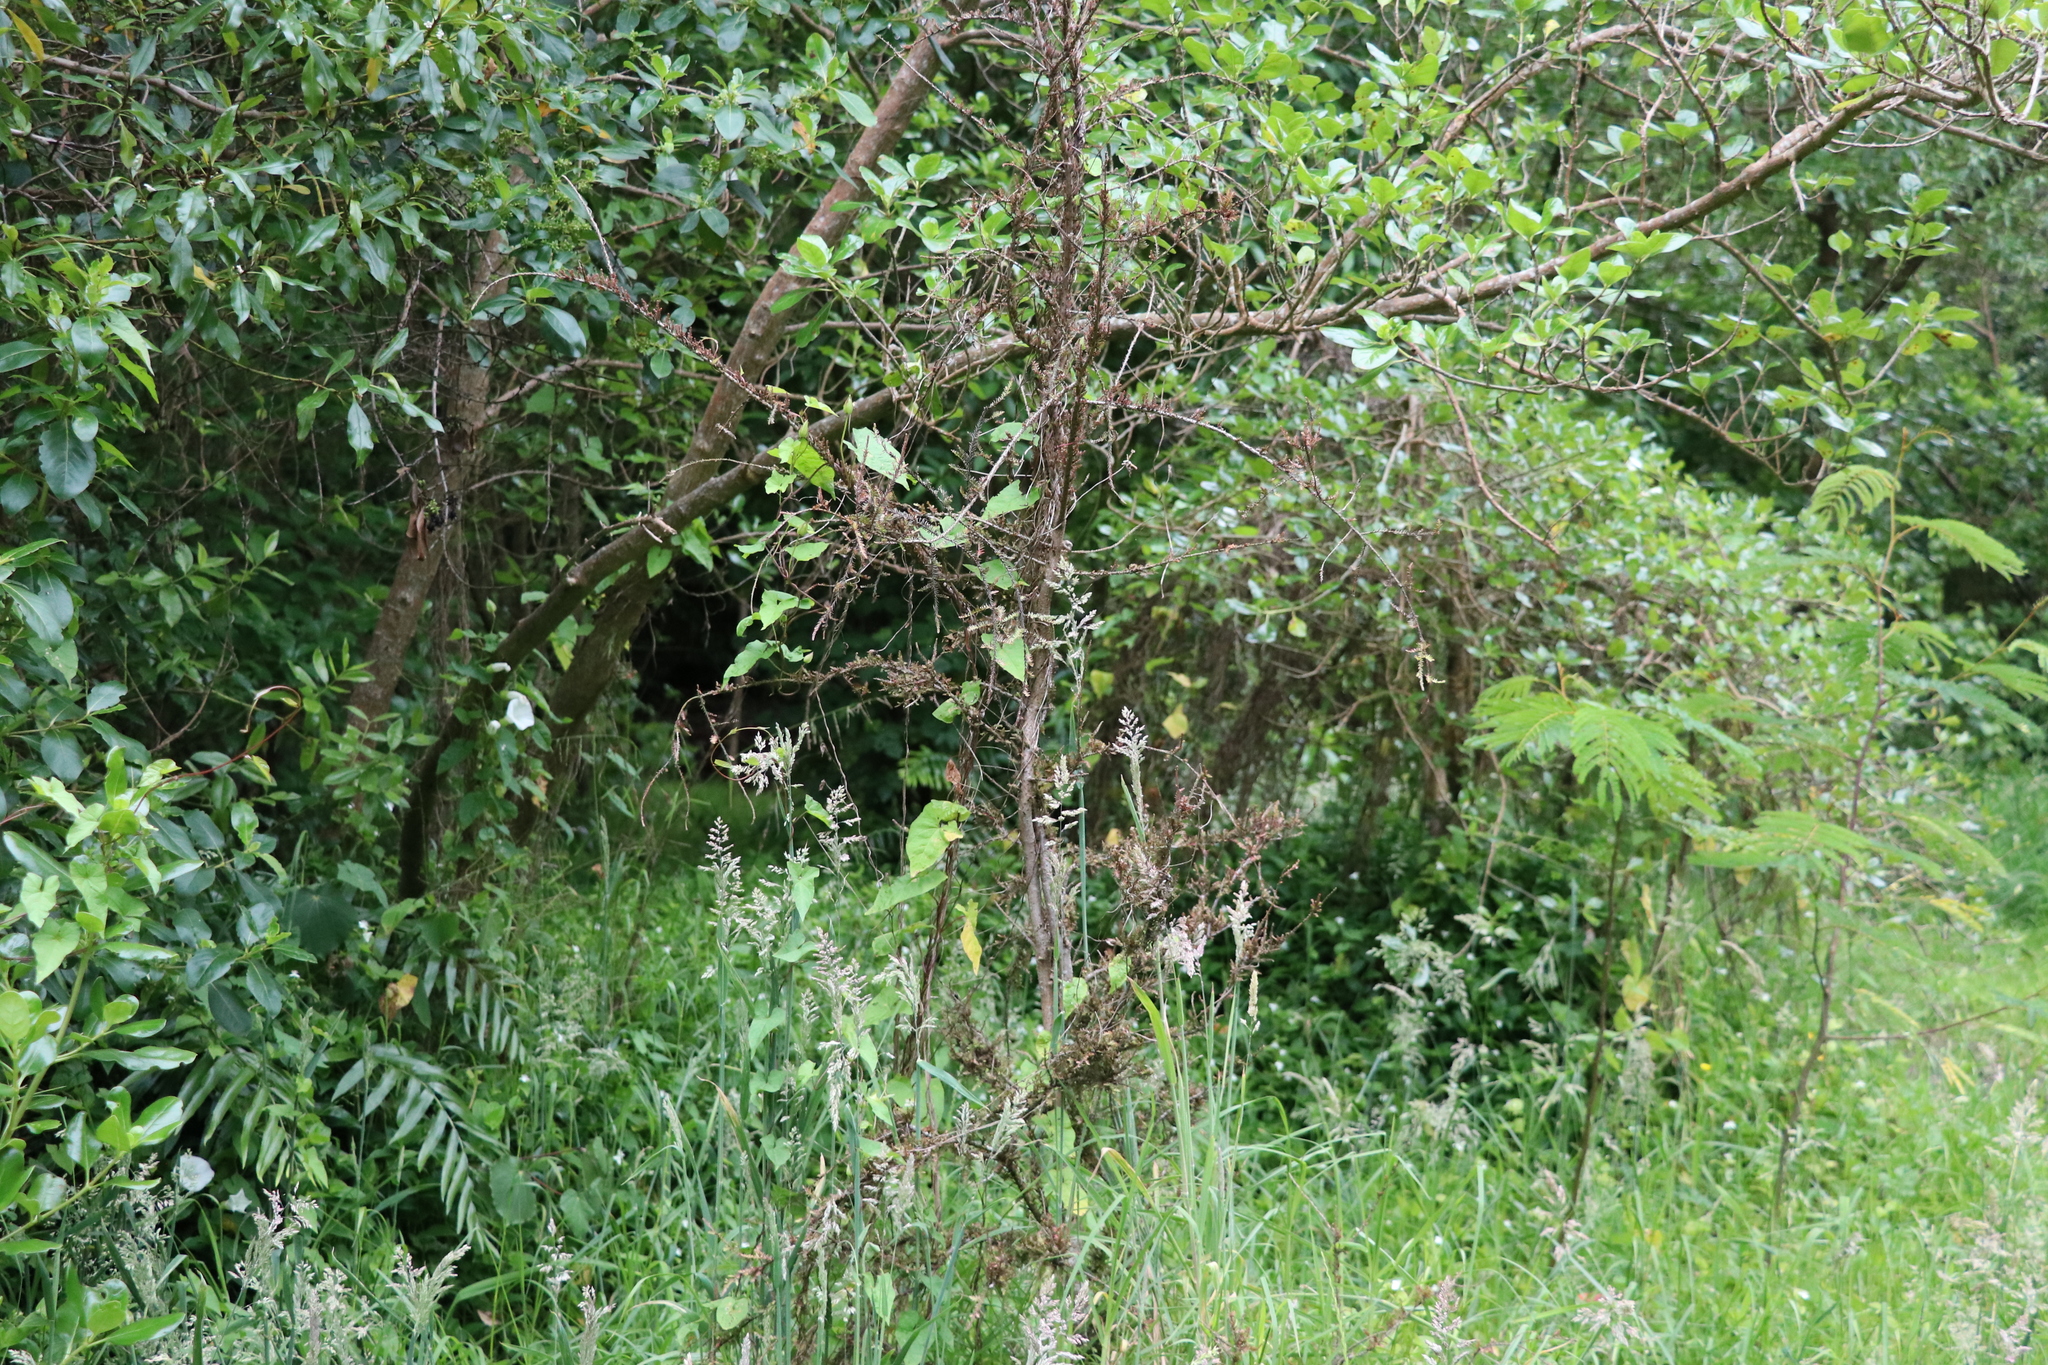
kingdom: Plantae
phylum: Tracheophyta
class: Pinopsida
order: Pinales
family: Podocarpaceae
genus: Dacrycarpus
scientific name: Dacrycarpus dacrydioides
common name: White pine
